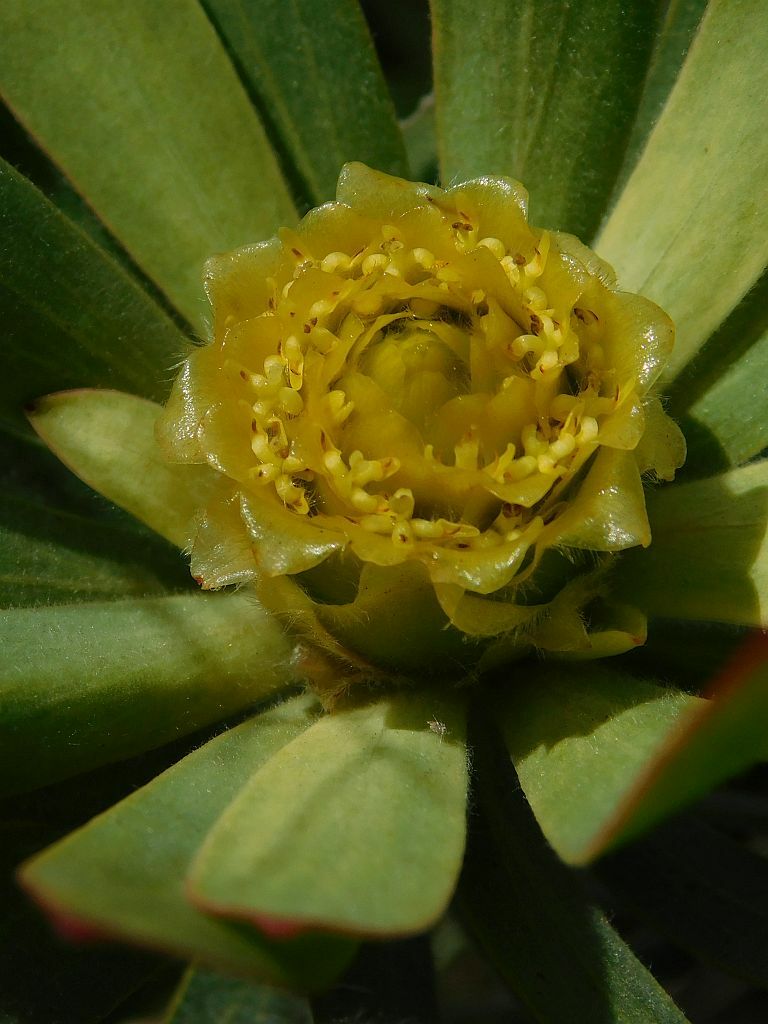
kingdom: Plantae
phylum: Tracheophyta
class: Magnoliopsida
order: Proteales
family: Proteaceae
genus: Leucadendron
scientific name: Leucadendron burchellii
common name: Riviersonderend conebush
